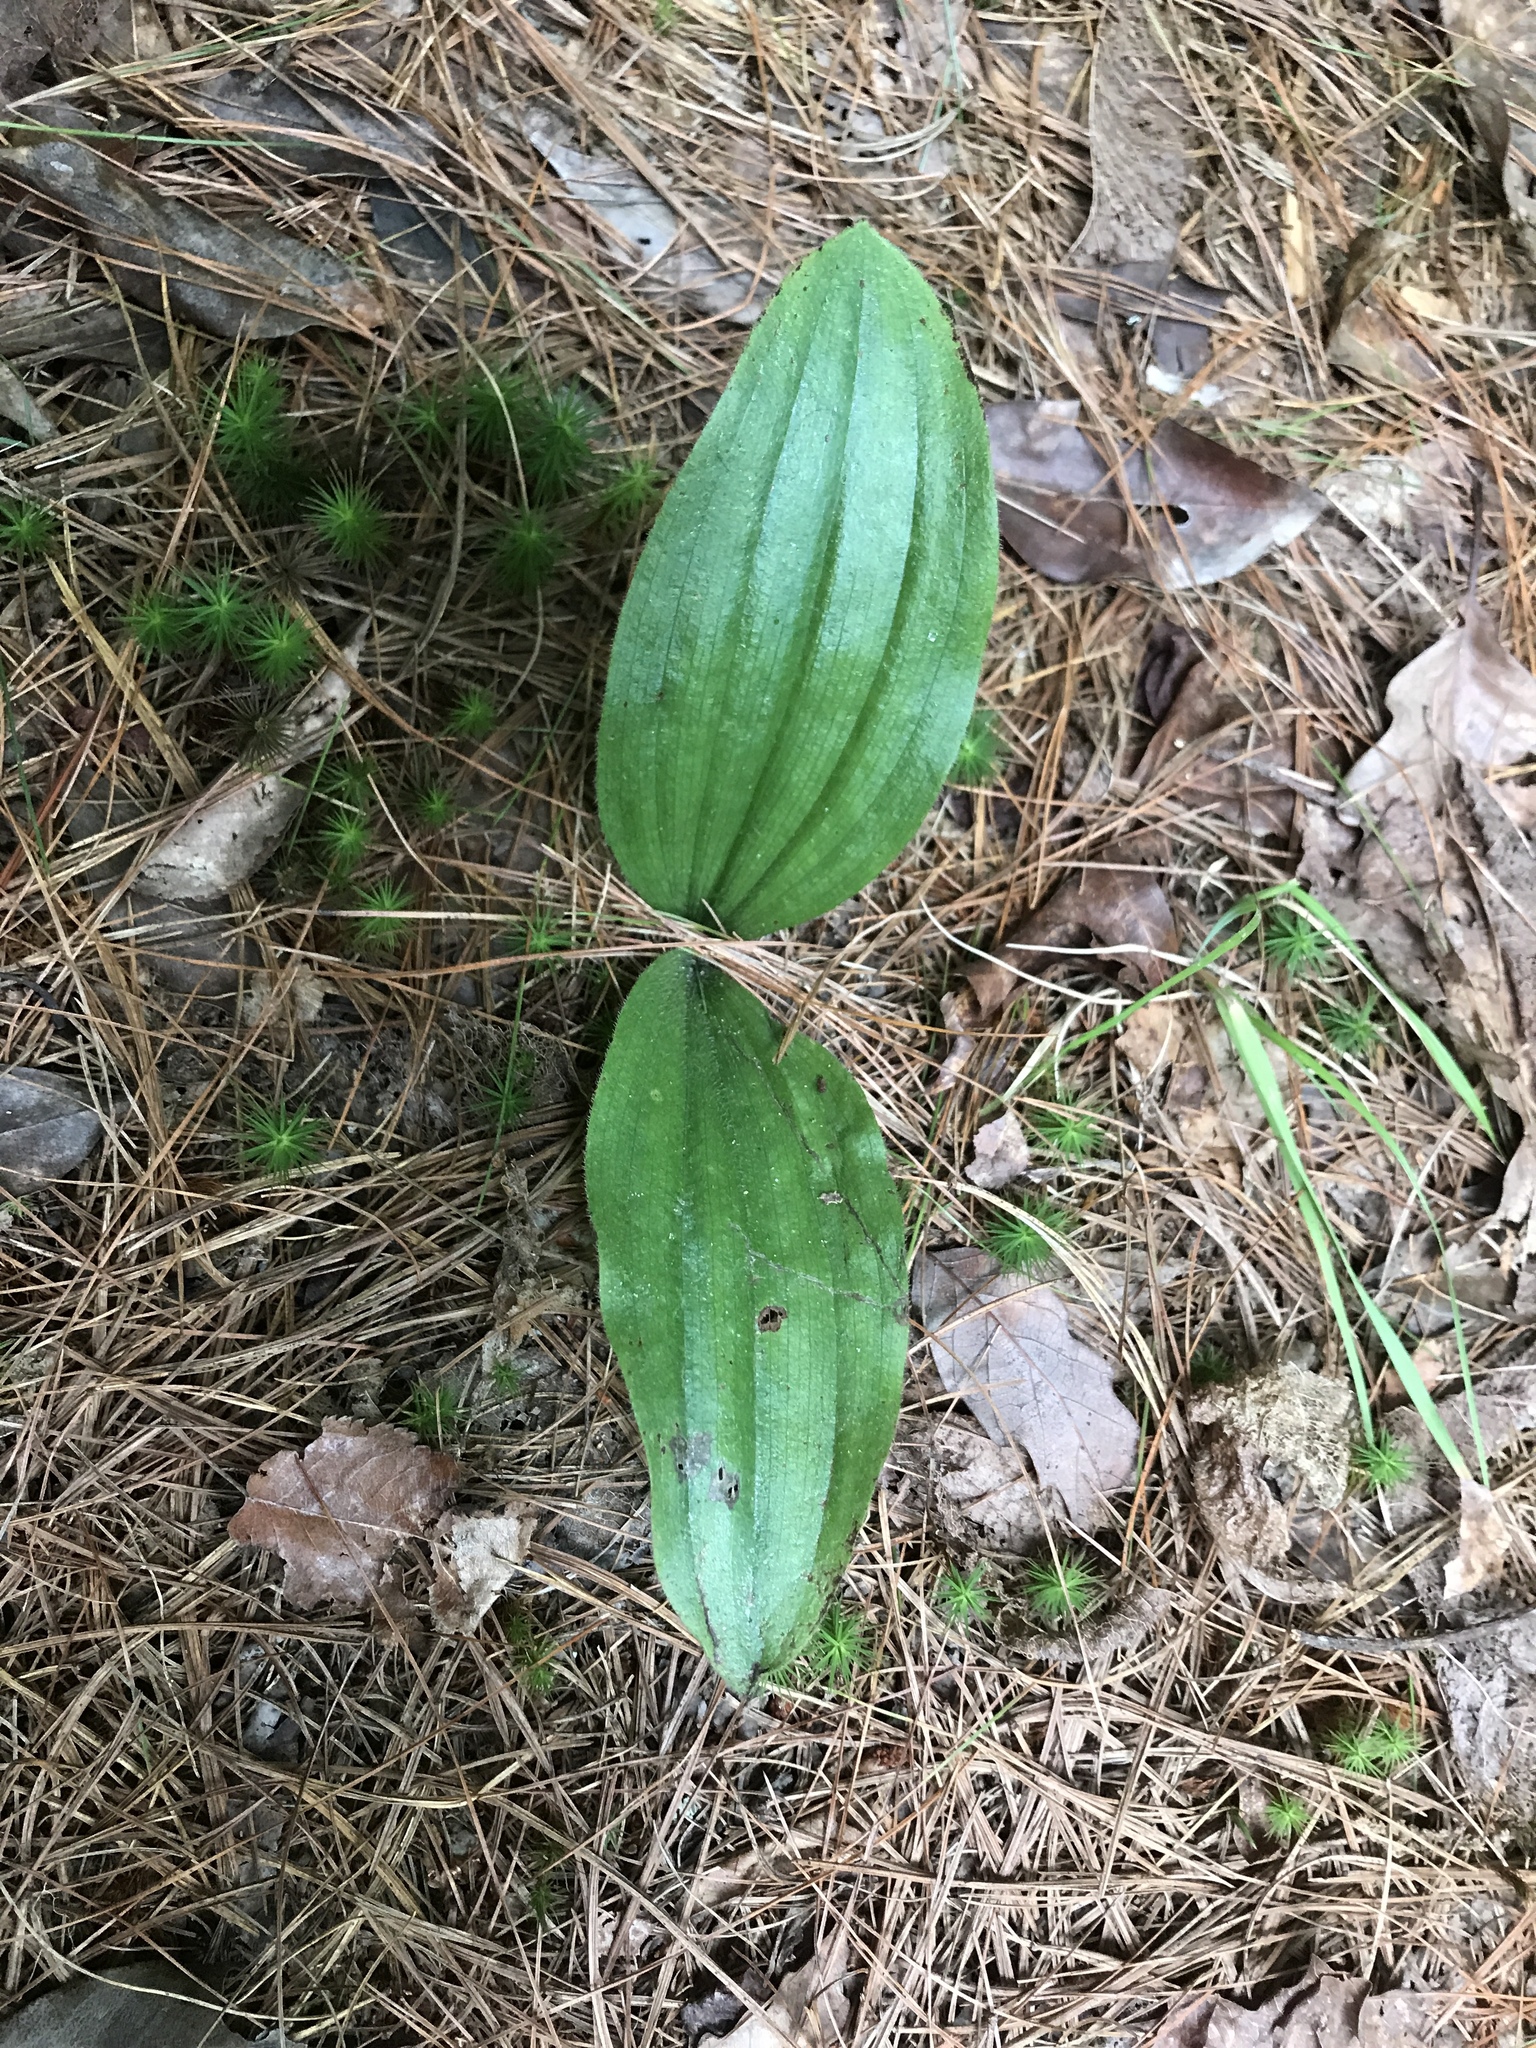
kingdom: Plantae
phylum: Tracheophyta
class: Liliopsida
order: Asparagales
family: Orchidaceae
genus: Cypripedium
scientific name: Cypripedium acaule
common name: Pink lady's-slipper
